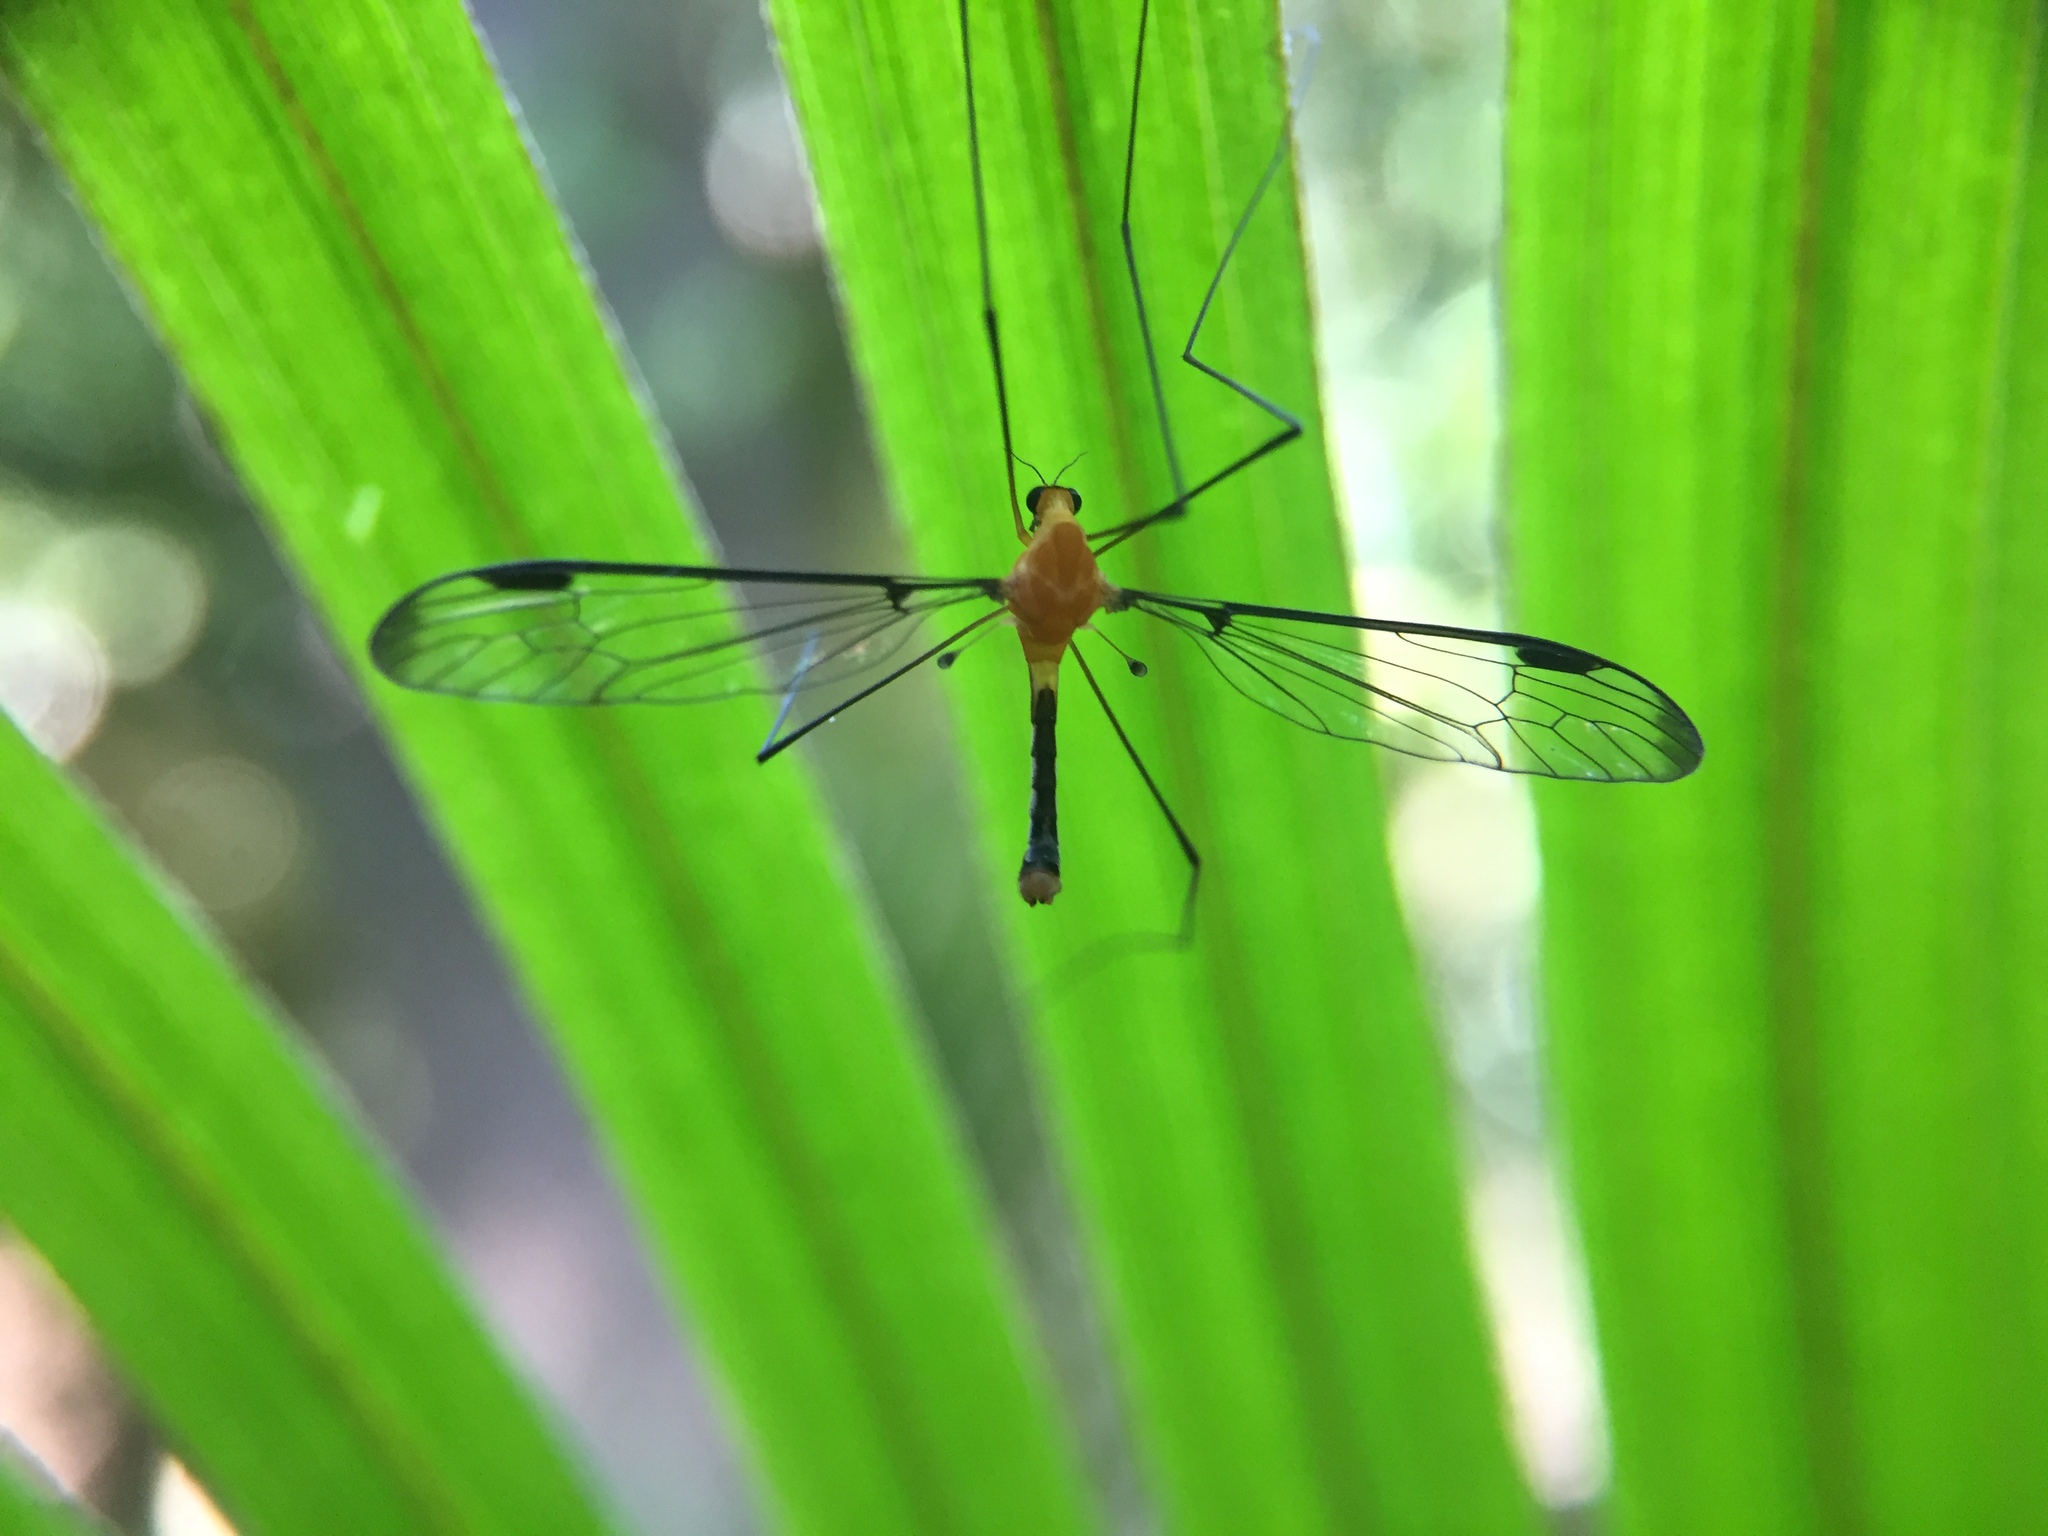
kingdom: Animalia
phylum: Arthropoda
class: Insecta
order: Diptera
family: Tipulidae
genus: Aurotipula
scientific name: Aurotipula
